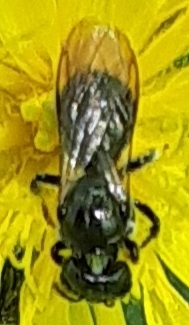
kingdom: Animalia
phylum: Arthropoda
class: Insecta
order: Hymenoptera
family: Apidae
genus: Zadontomerus
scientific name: Zadontomerus
